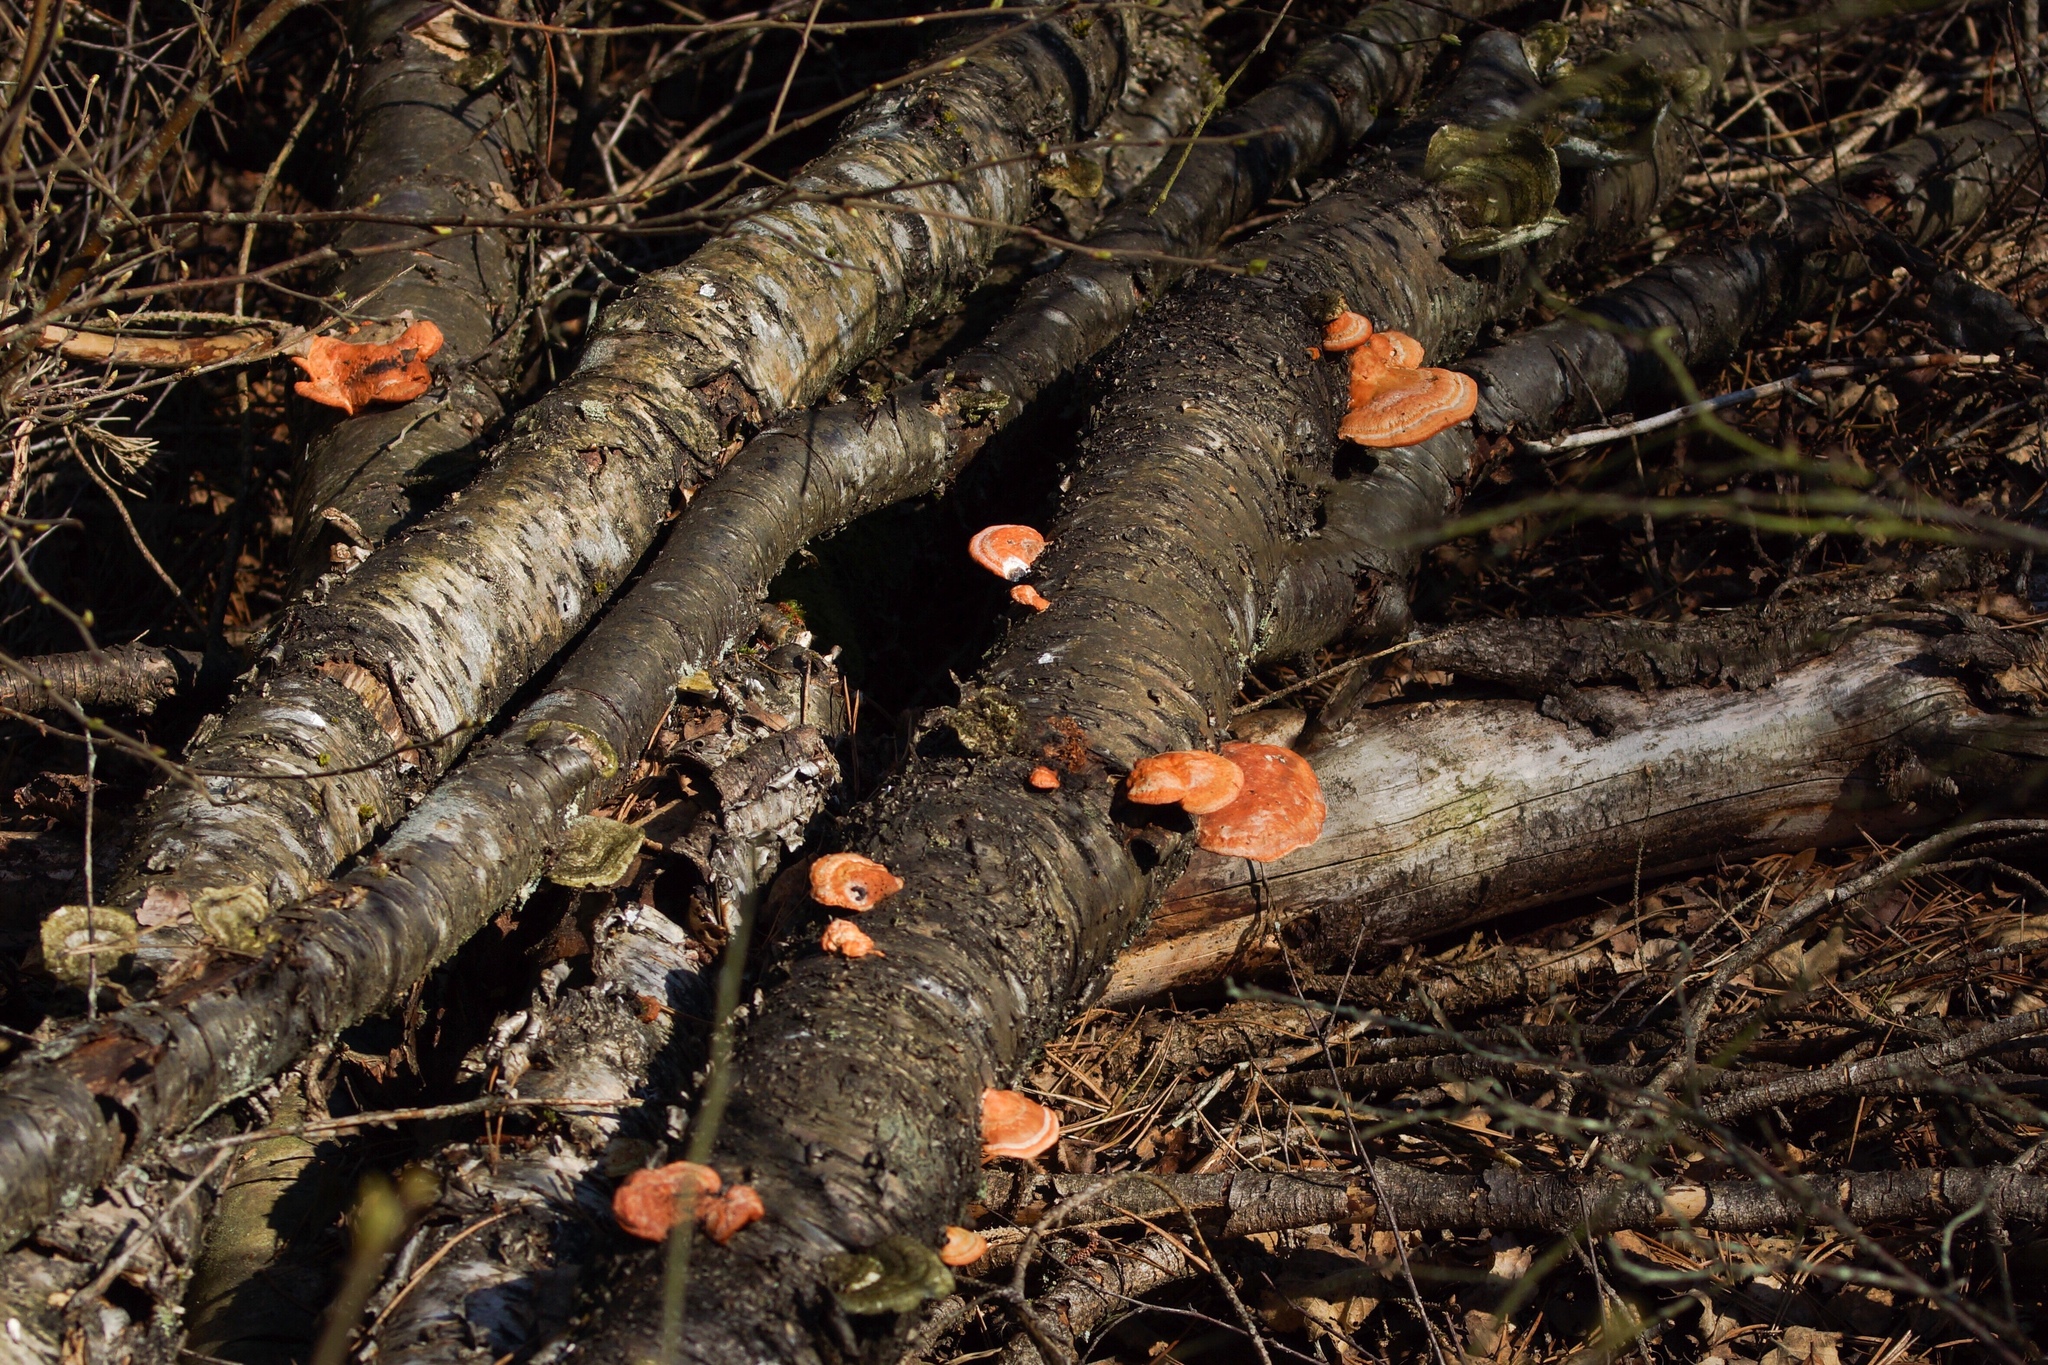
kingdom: Fungi
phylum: Basidiomycota
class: Agaricomycetes
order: Polyporales
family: Polyporaceae
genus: Trametes
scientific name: Trametes cinnabarina
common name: Northern cinnabar polypore
